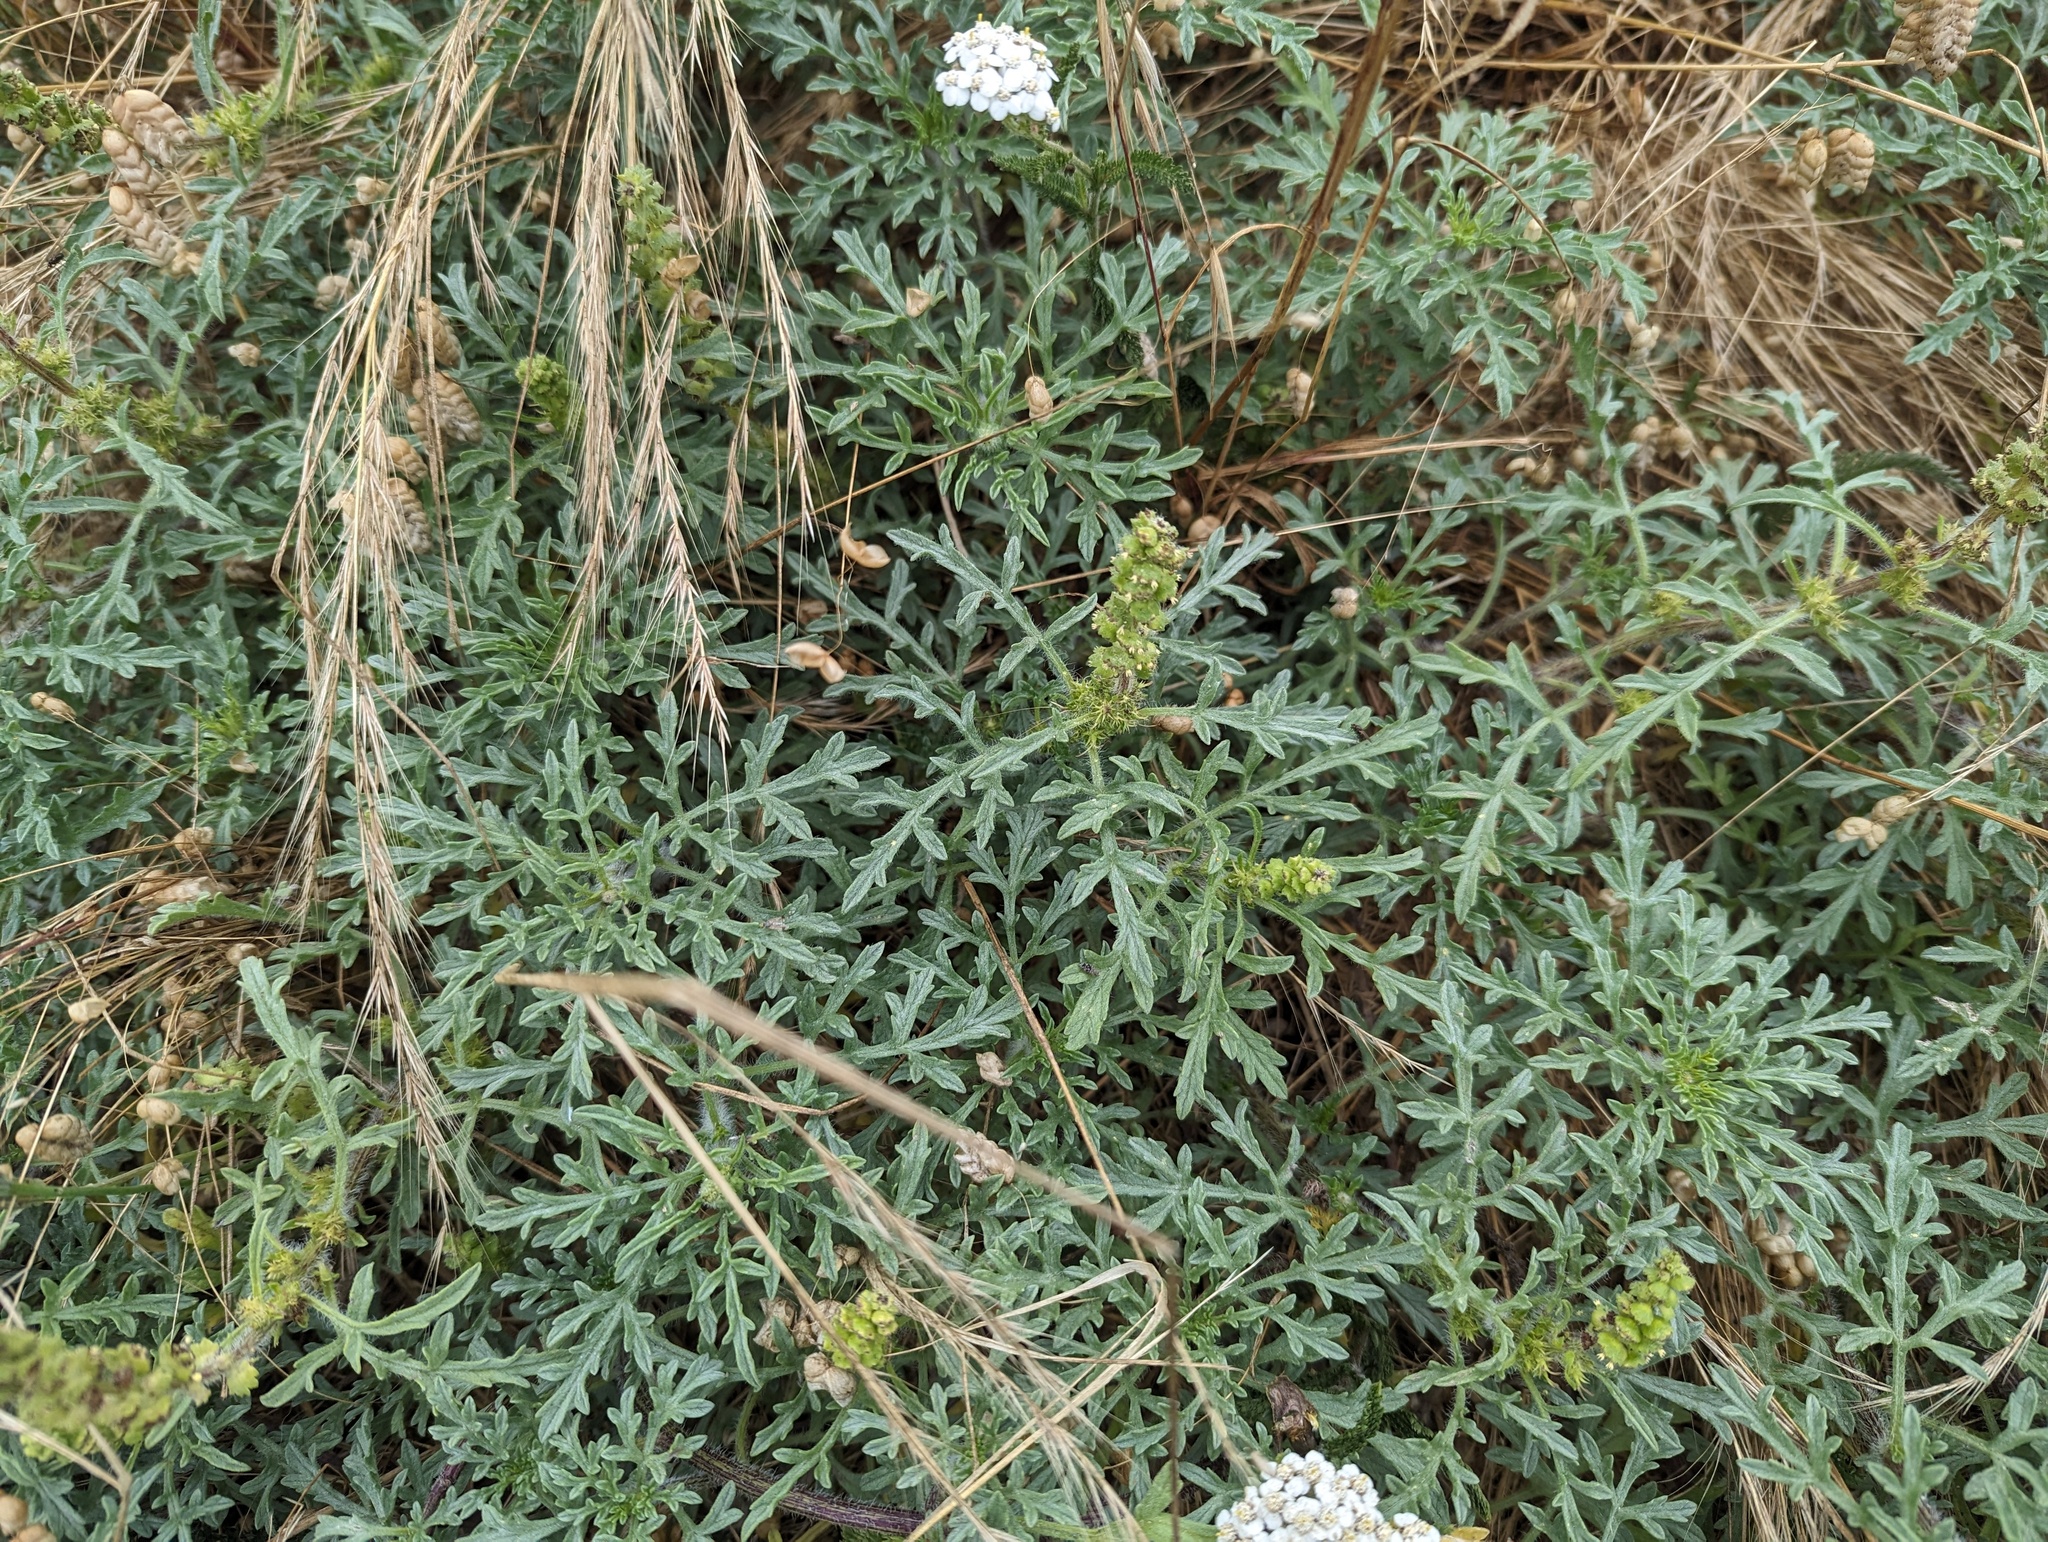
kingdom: Plantae
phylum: Tracheophyta
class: Magnoliopsida
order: Asterales
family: Asteraceae
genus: Ambrosia
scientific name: Ambrosia chamissonis
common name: Beachbur
